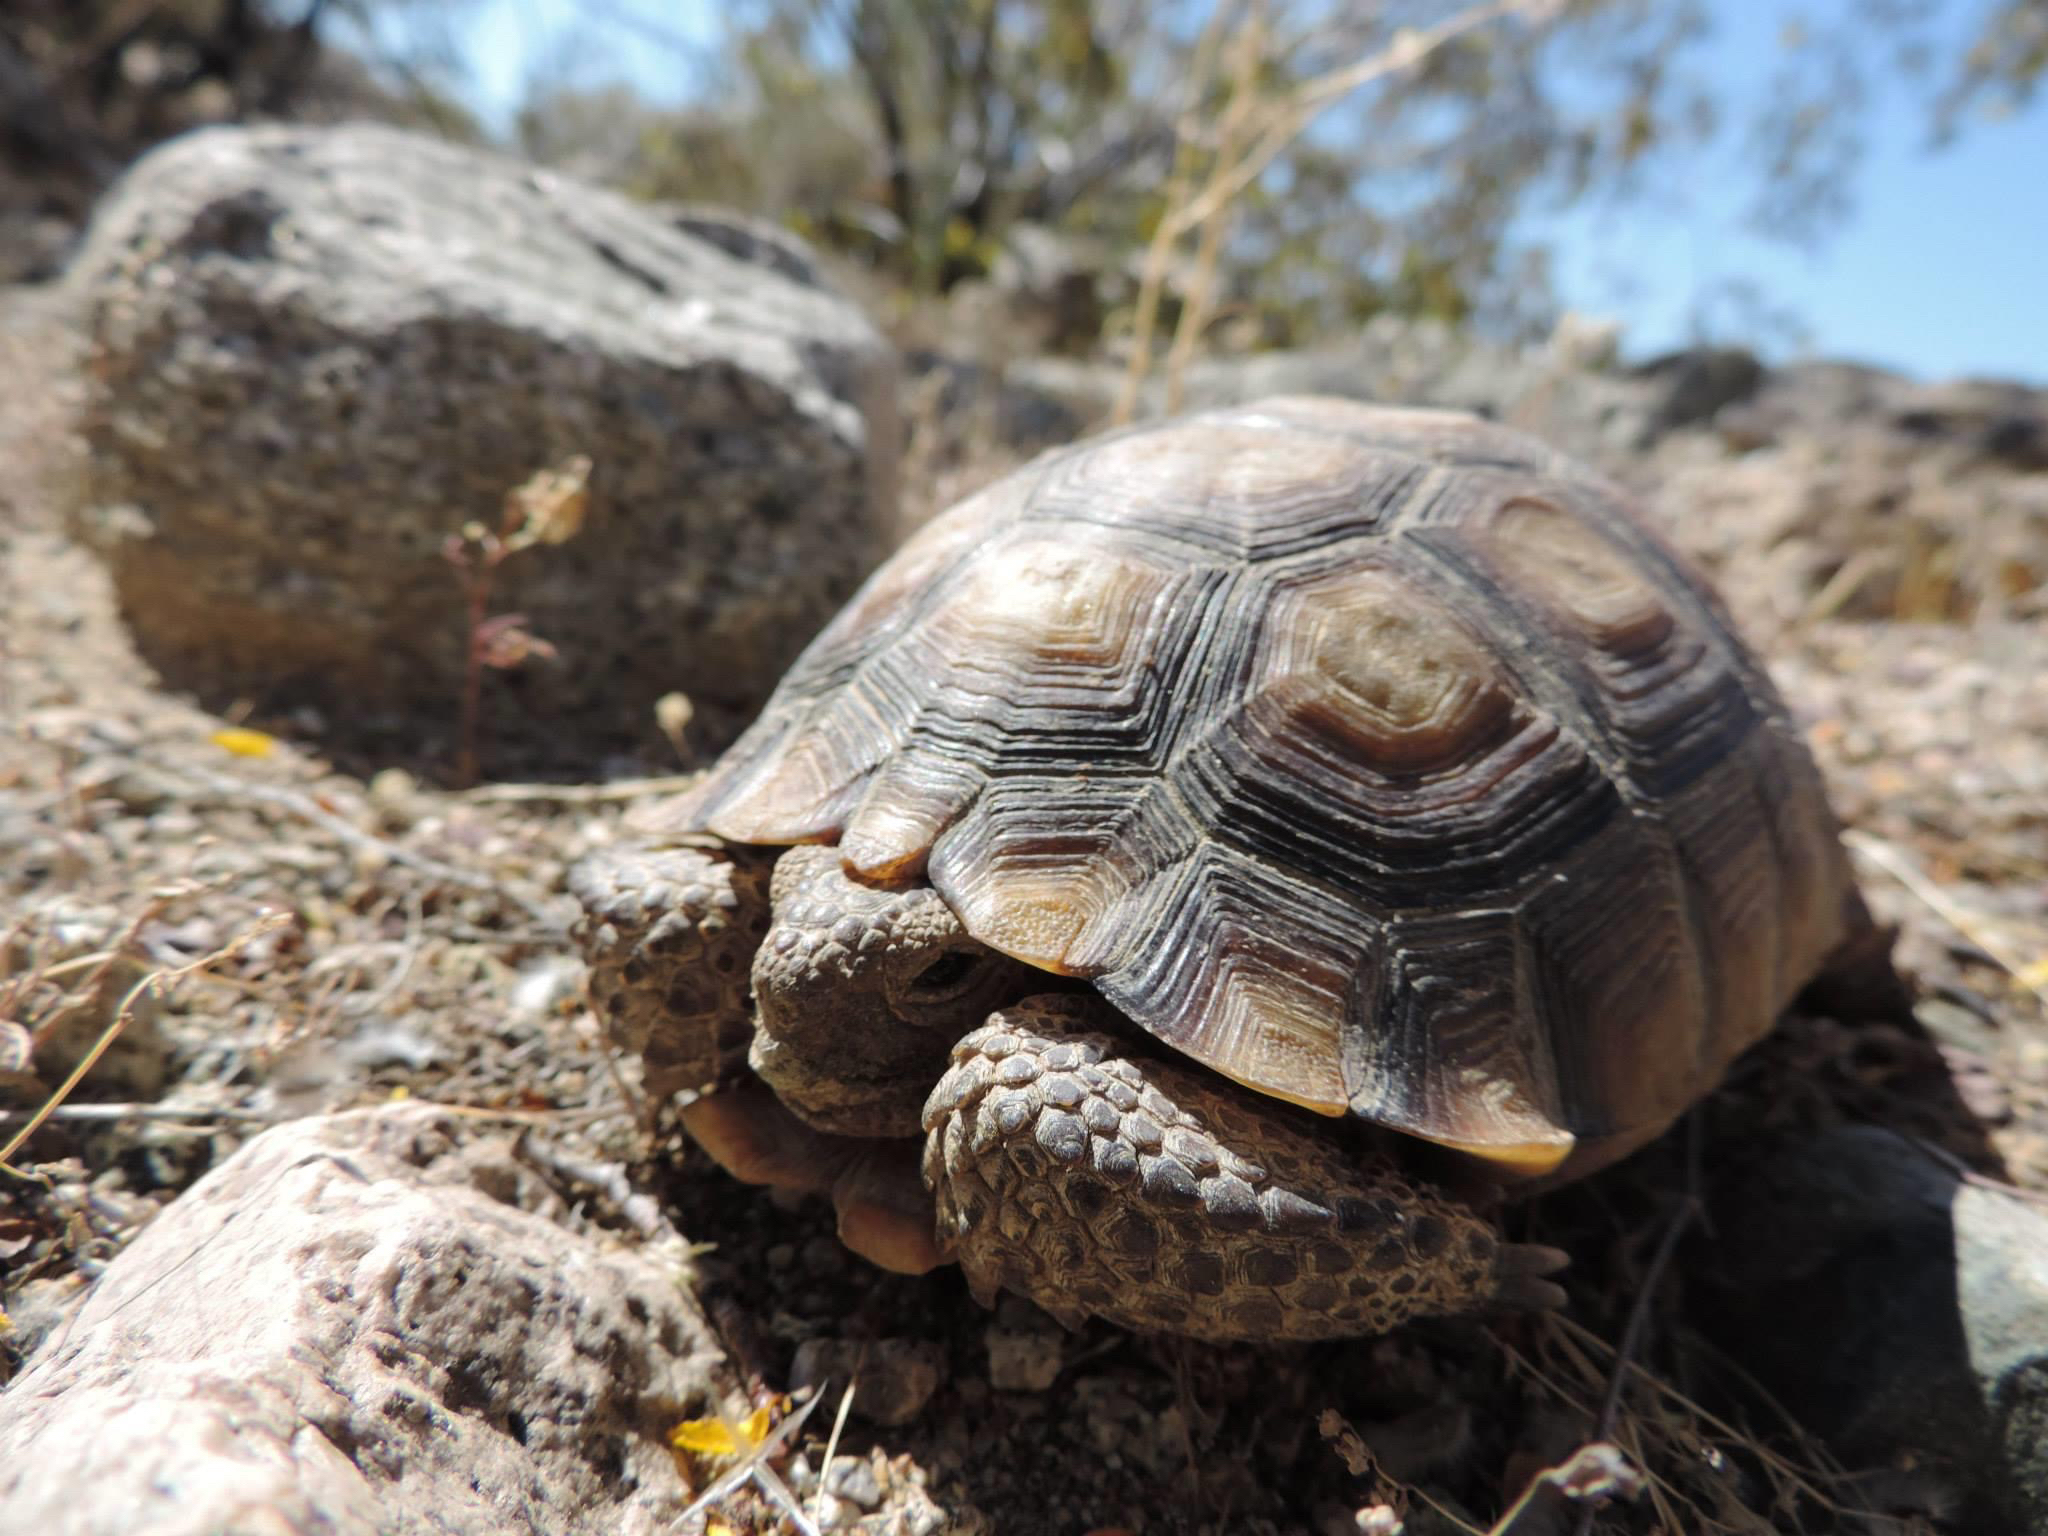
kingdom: Animalia
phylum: Chordata
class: Testudines
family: Testudinidae
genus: Gopherus
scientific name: Gopherus agassizii
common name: Mojave desert tortoise
